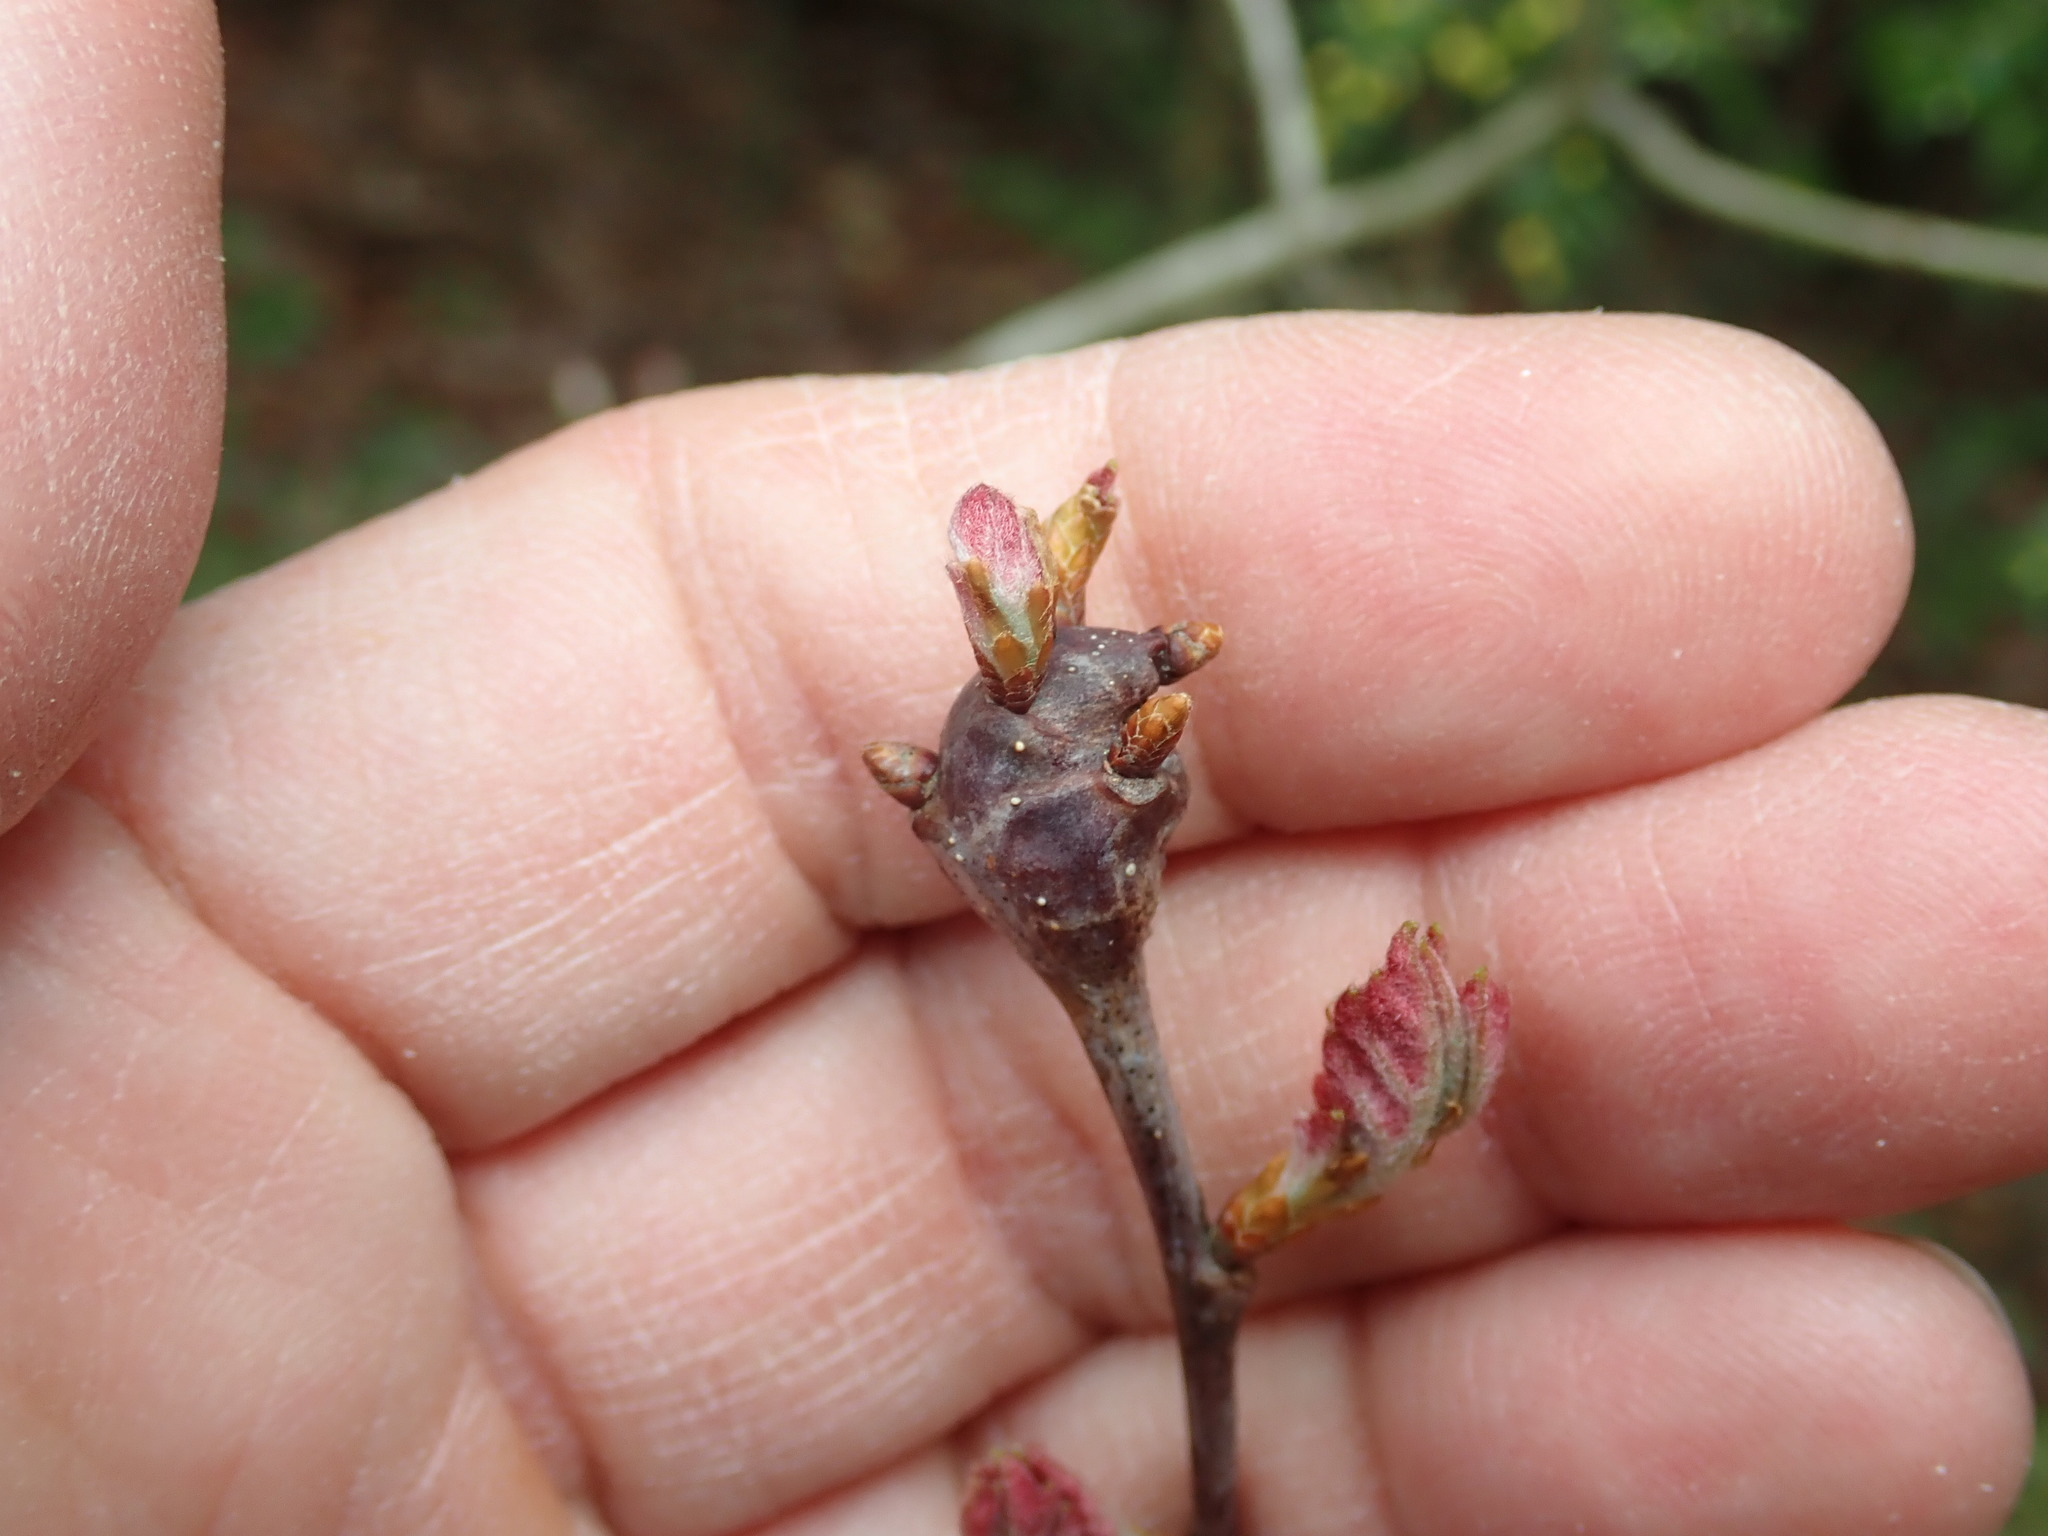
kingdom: Animalia
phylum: Arthropoda
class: Insecta
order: Hymenoptera
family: Cynipidae
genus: Callirhytis
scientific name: Callirhytis clavula
